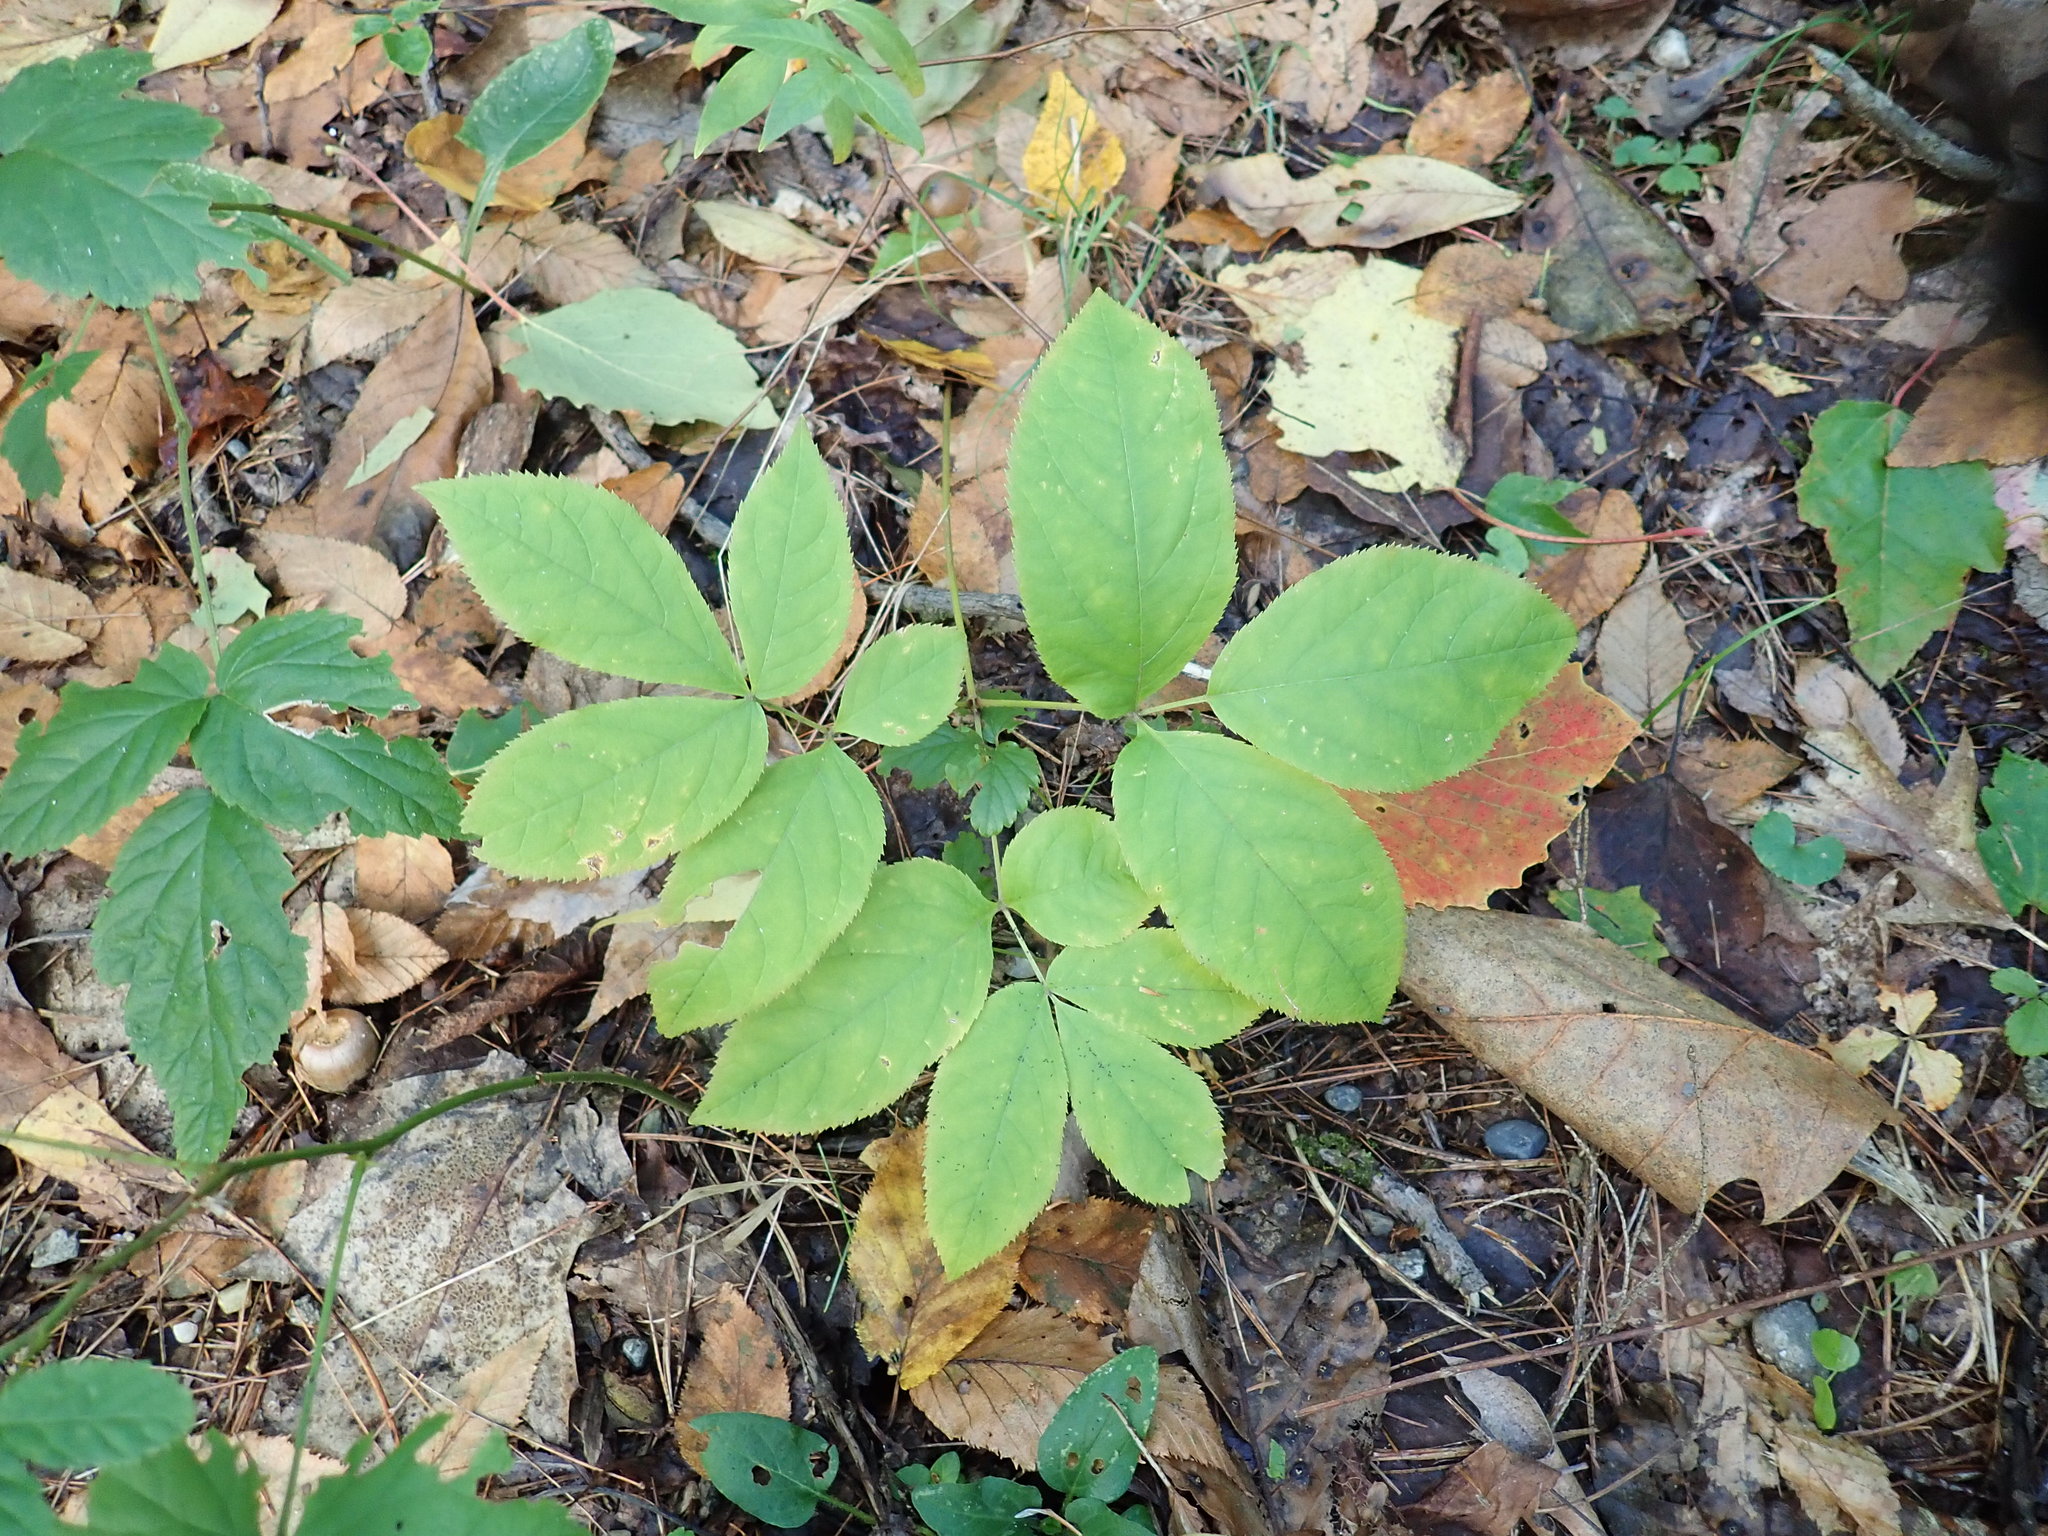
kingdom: Plantae
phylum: Tracheophyta
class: Magnoliopsida
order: Apiales
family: Araliaceae
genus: Aralia
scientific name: Aralia nudicaulis
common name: Wild sarsaparilla
